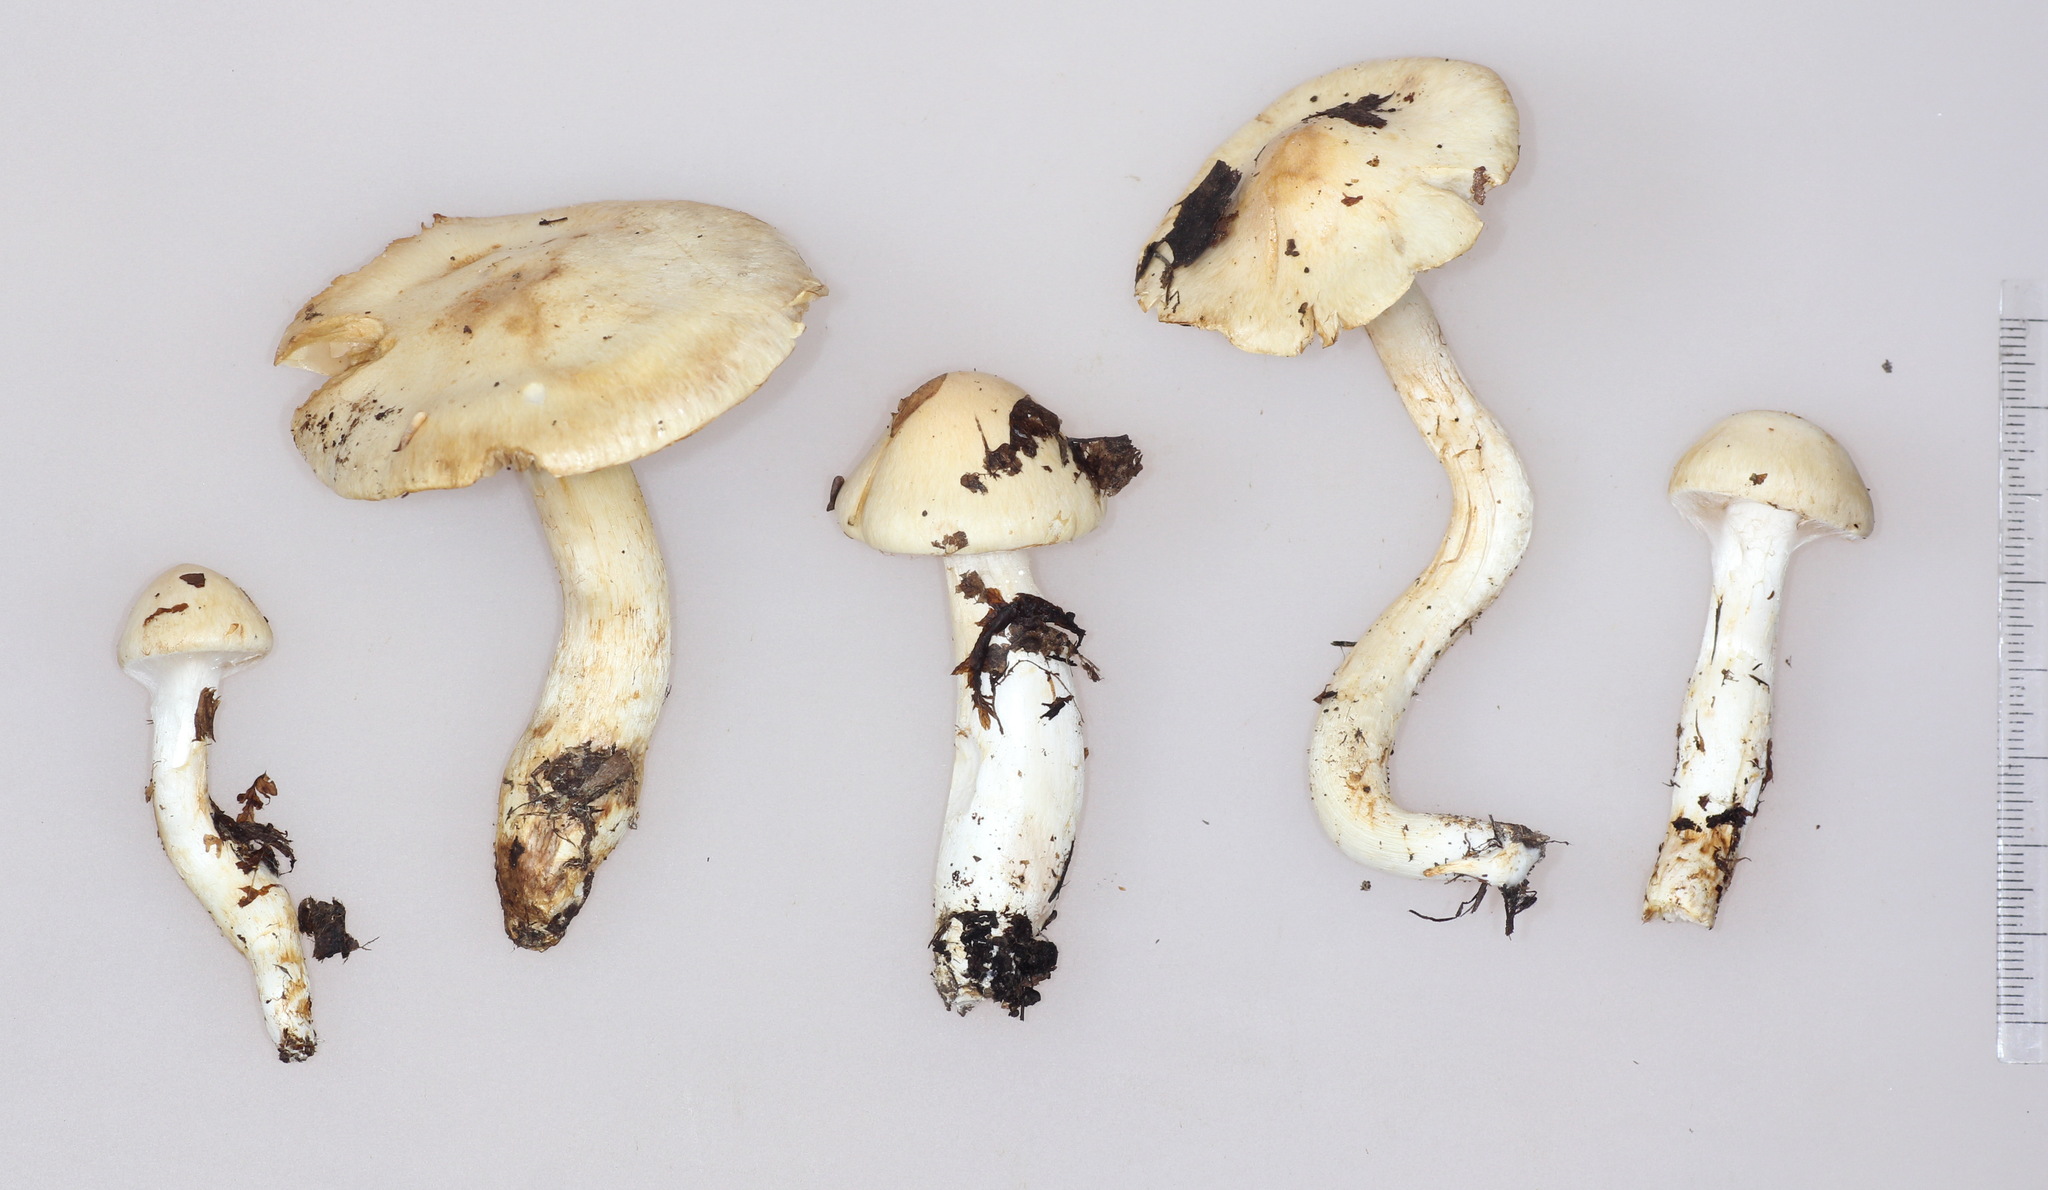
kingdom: Fungi
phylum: Basidiomycota
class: Agaricomycetes
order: Agaricales
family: Cortinariaceae
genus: Phlegmacium
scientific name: Phlegmacium argutum
